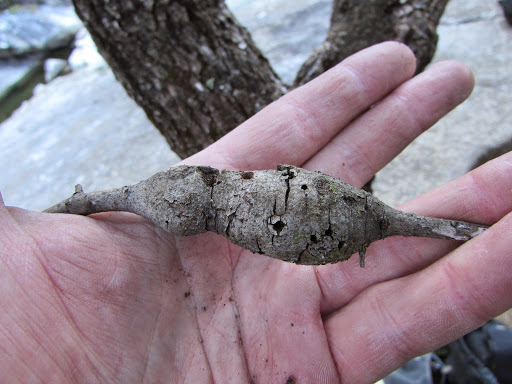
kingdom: Animalia
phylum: Arthropoda
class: Insecta
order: Hymenoptera
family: Cynipidae
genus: Disholcaspis
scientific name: Disholcaspis spectabilis
